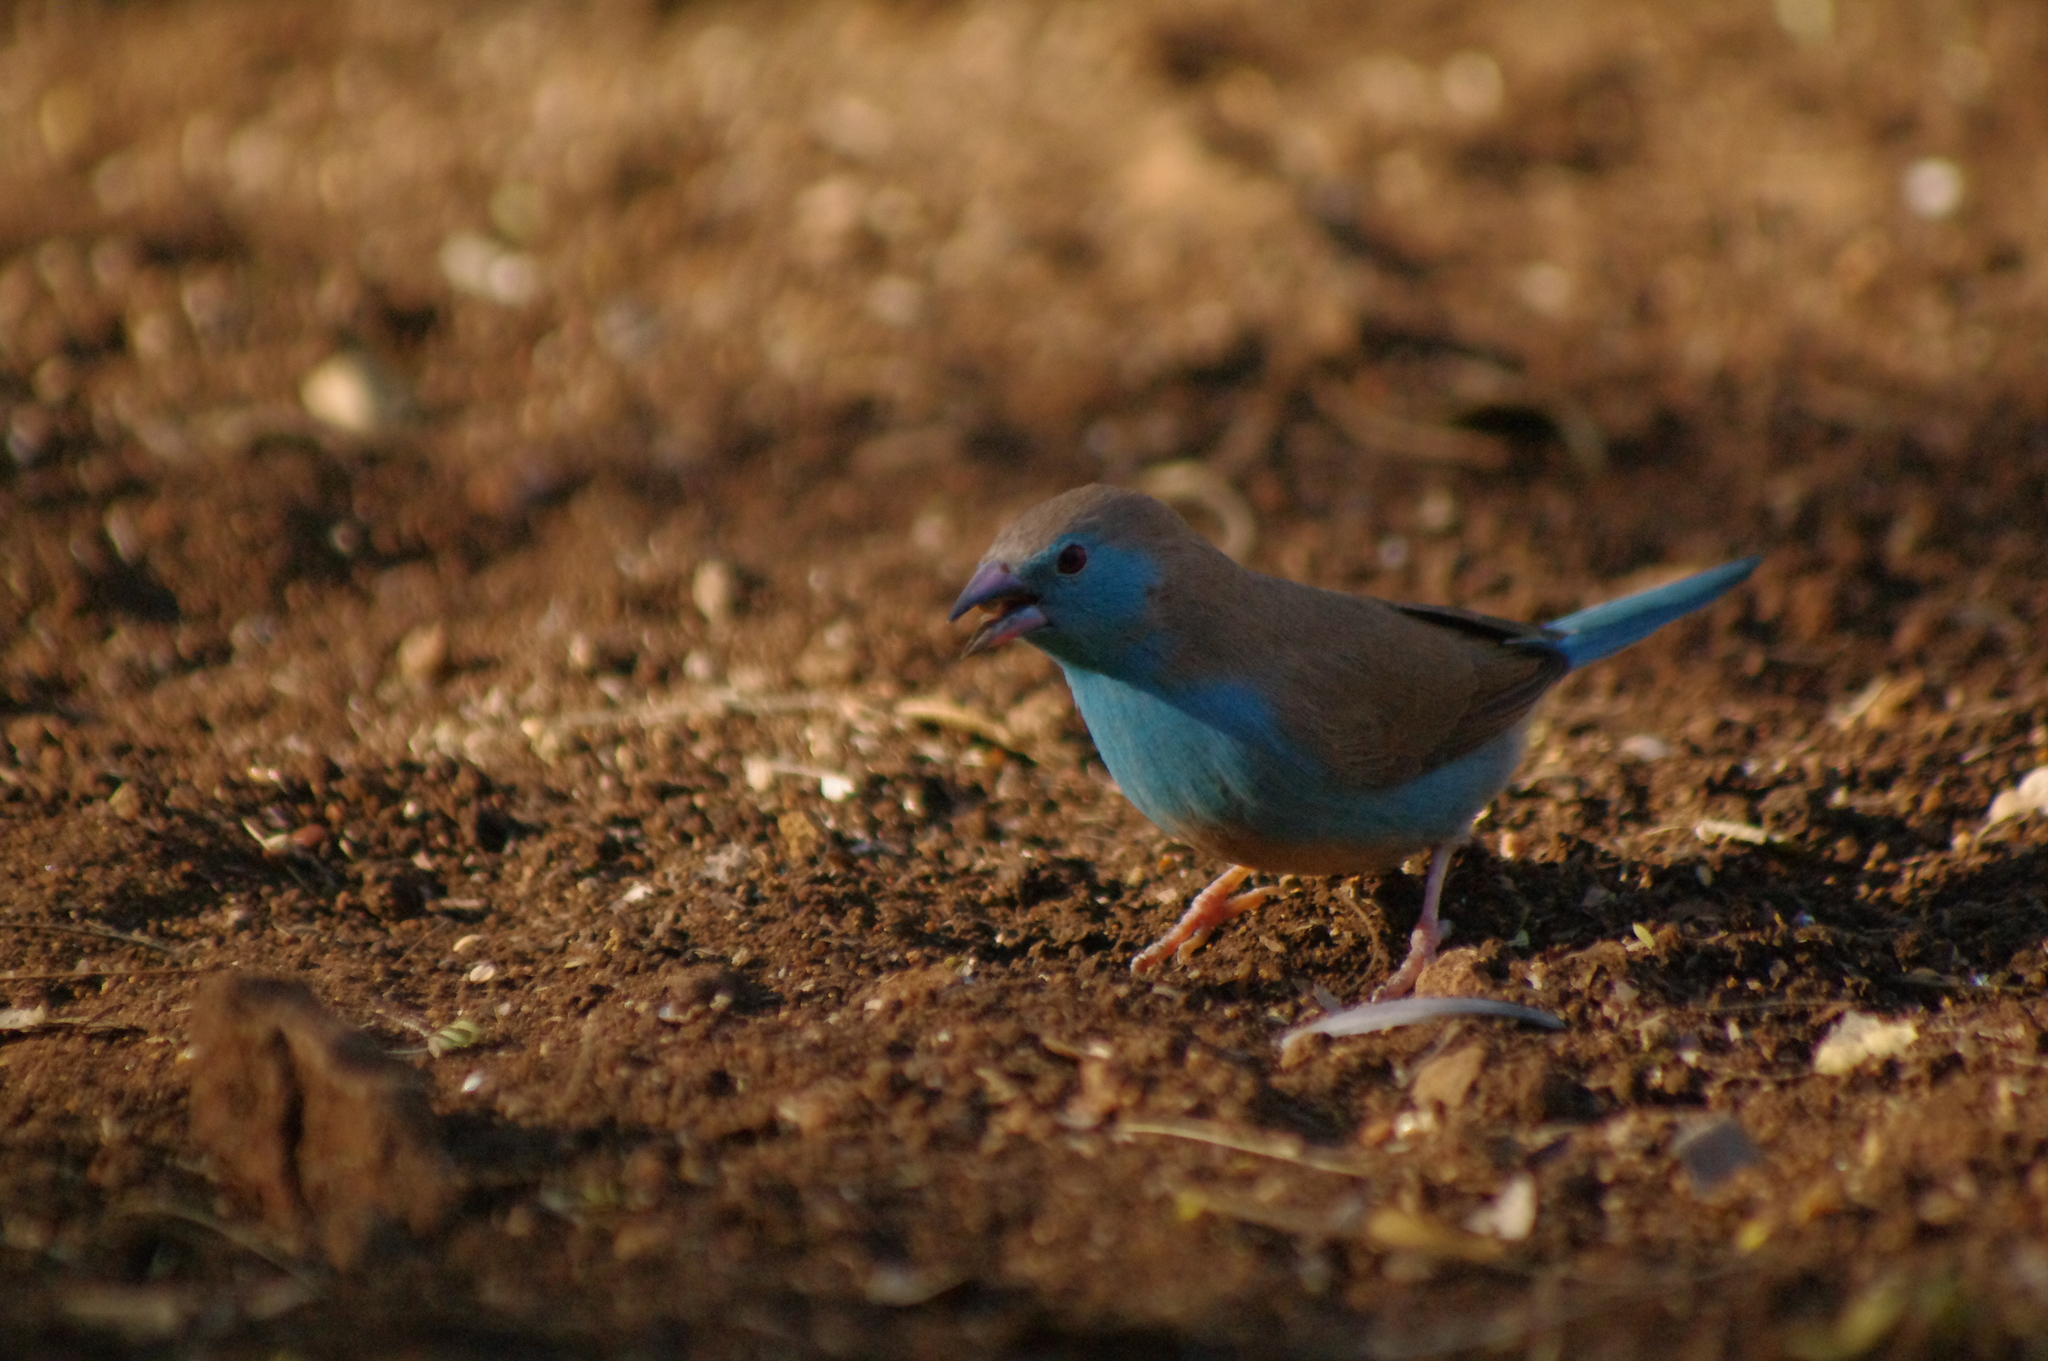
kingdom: Animalia
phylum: Chordata
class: Aves
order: Passeriformes
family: Estrildidae
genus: Uraeginthus
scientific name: Uraeginthus angolensis
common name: Blue waxbill
